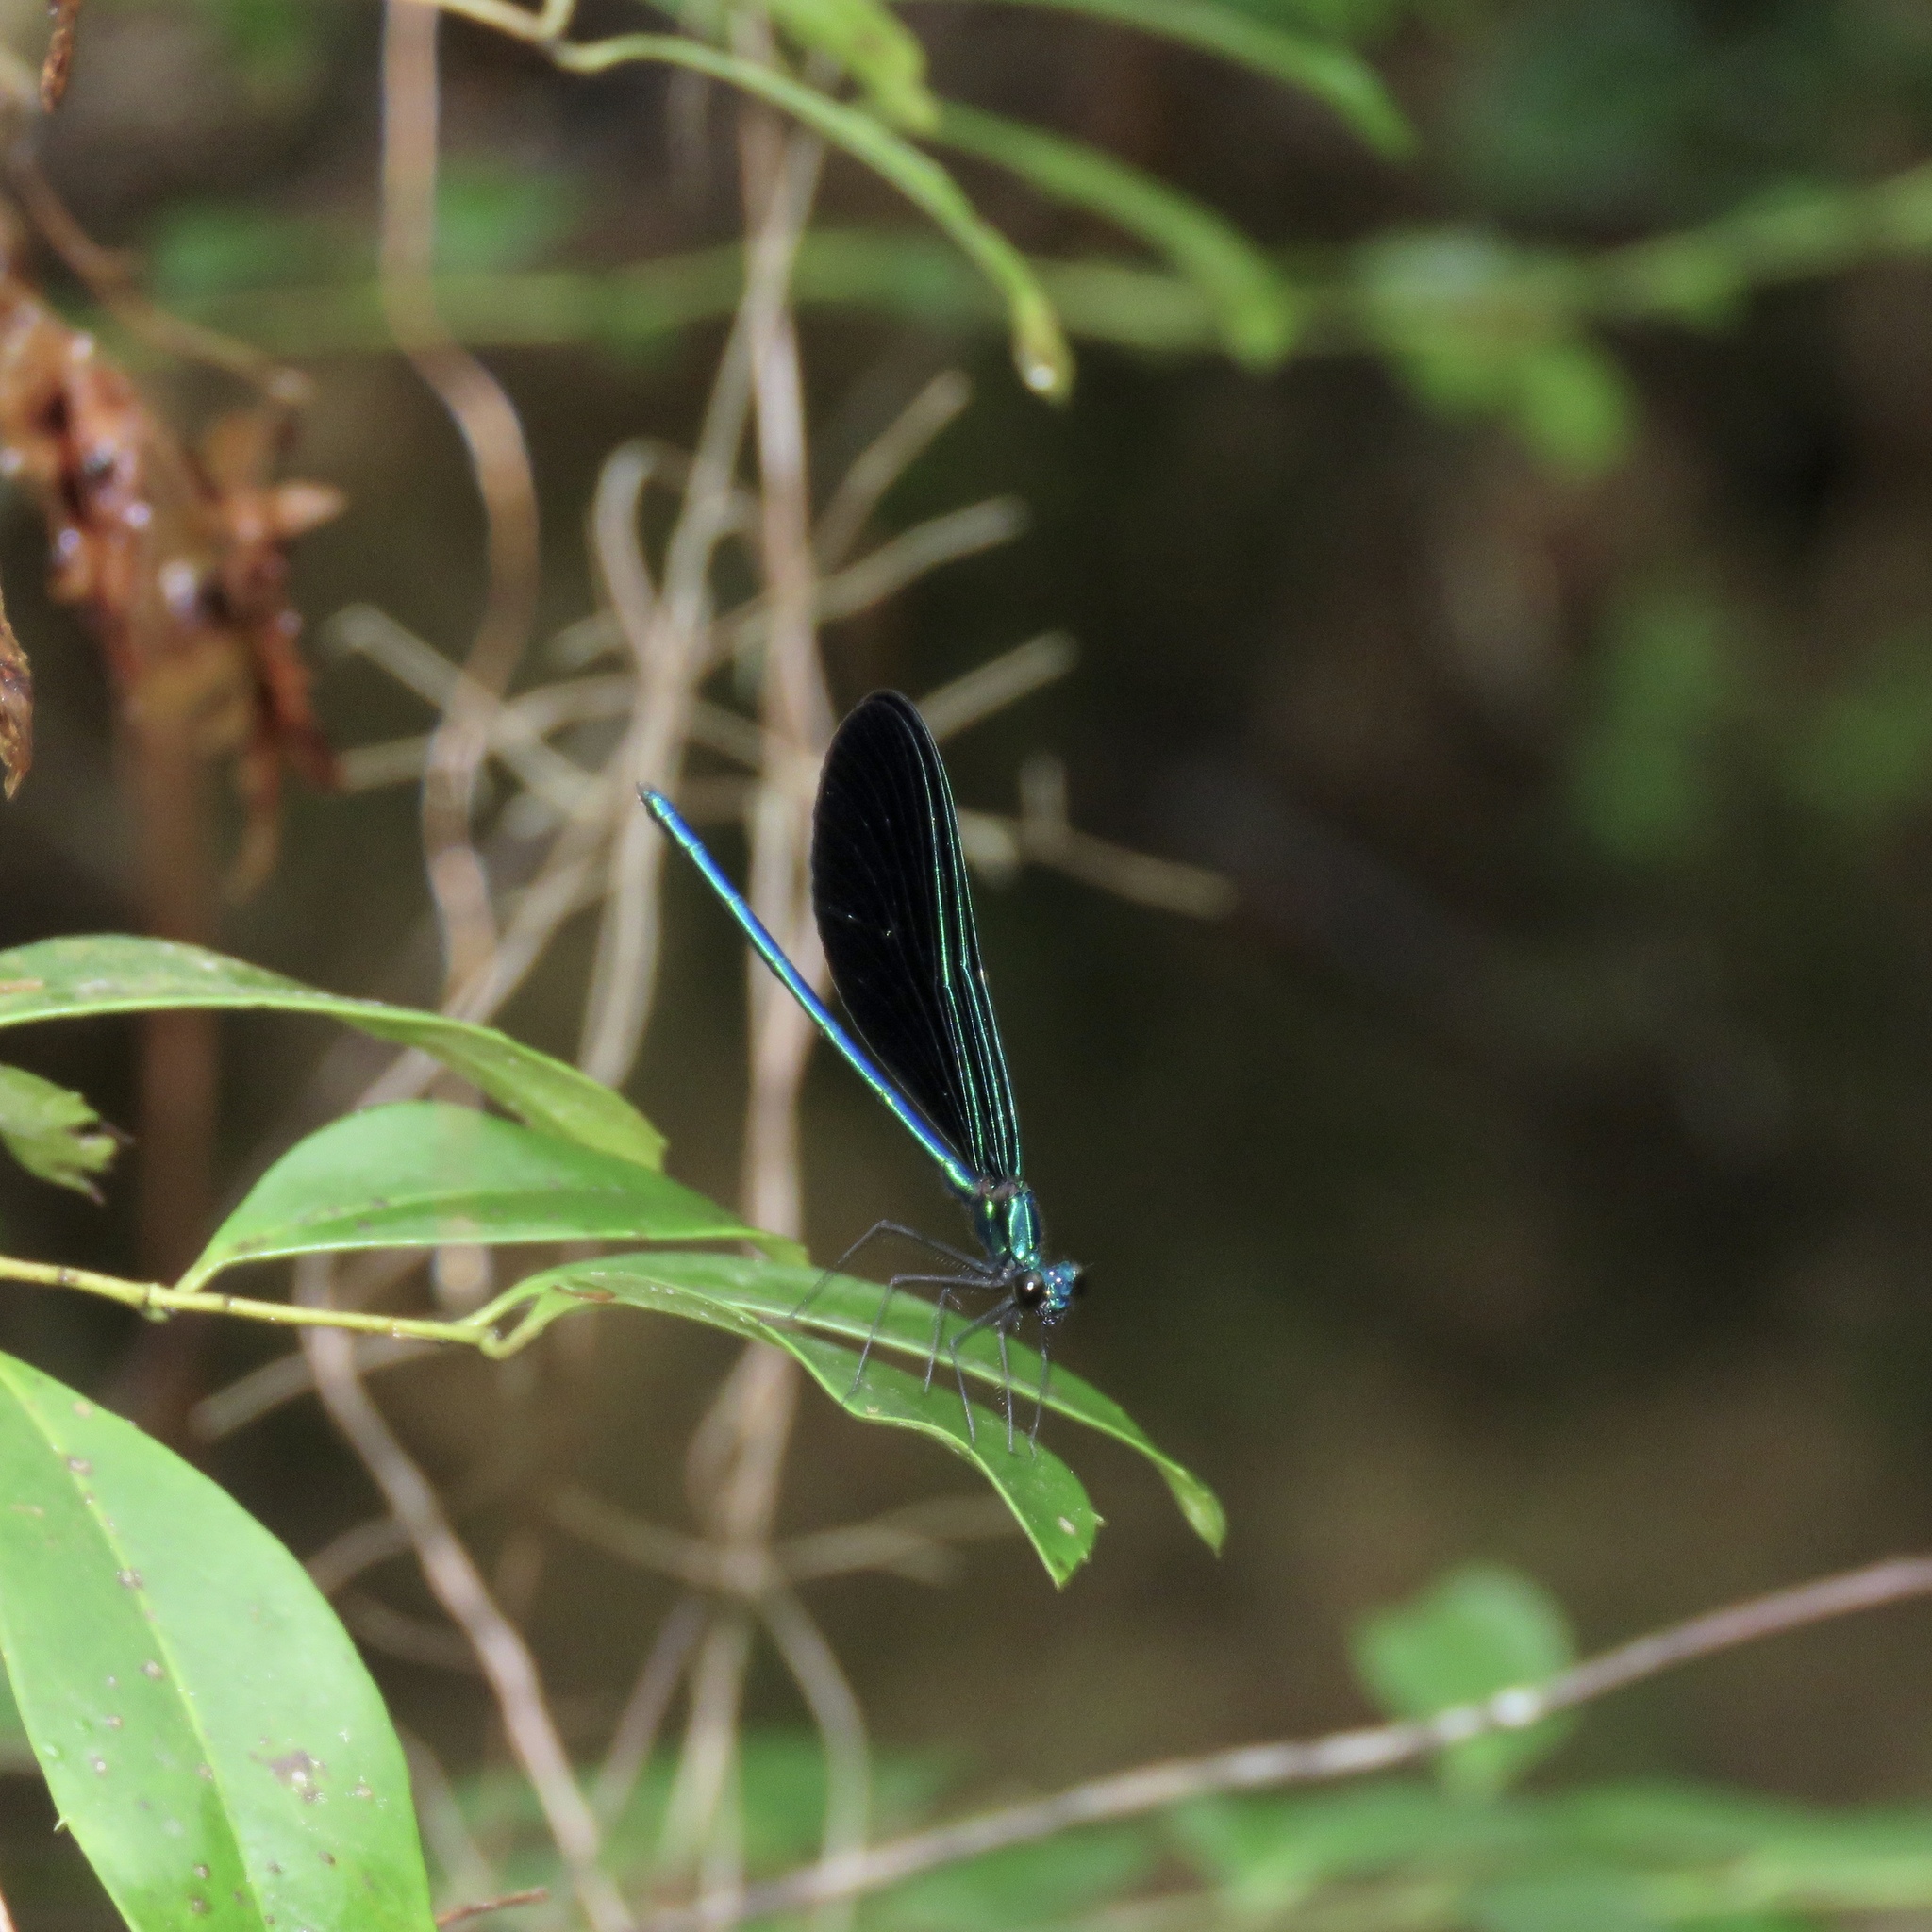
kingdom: Animalia
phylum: Arthropoda
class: Insecta
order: Odonata
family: Calopterygidae
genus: Calopteryx
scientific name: Calopteryx maculata
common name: Ebony jewelwing
